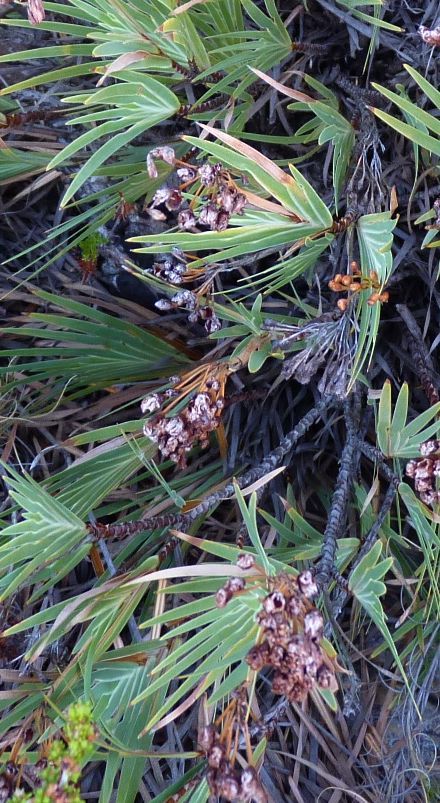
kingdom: Plantae
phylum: Tracheophyta
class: Liliopsida
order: Asparagales
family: Iridaceae
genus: Nivenia
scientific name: Nivenia binata
